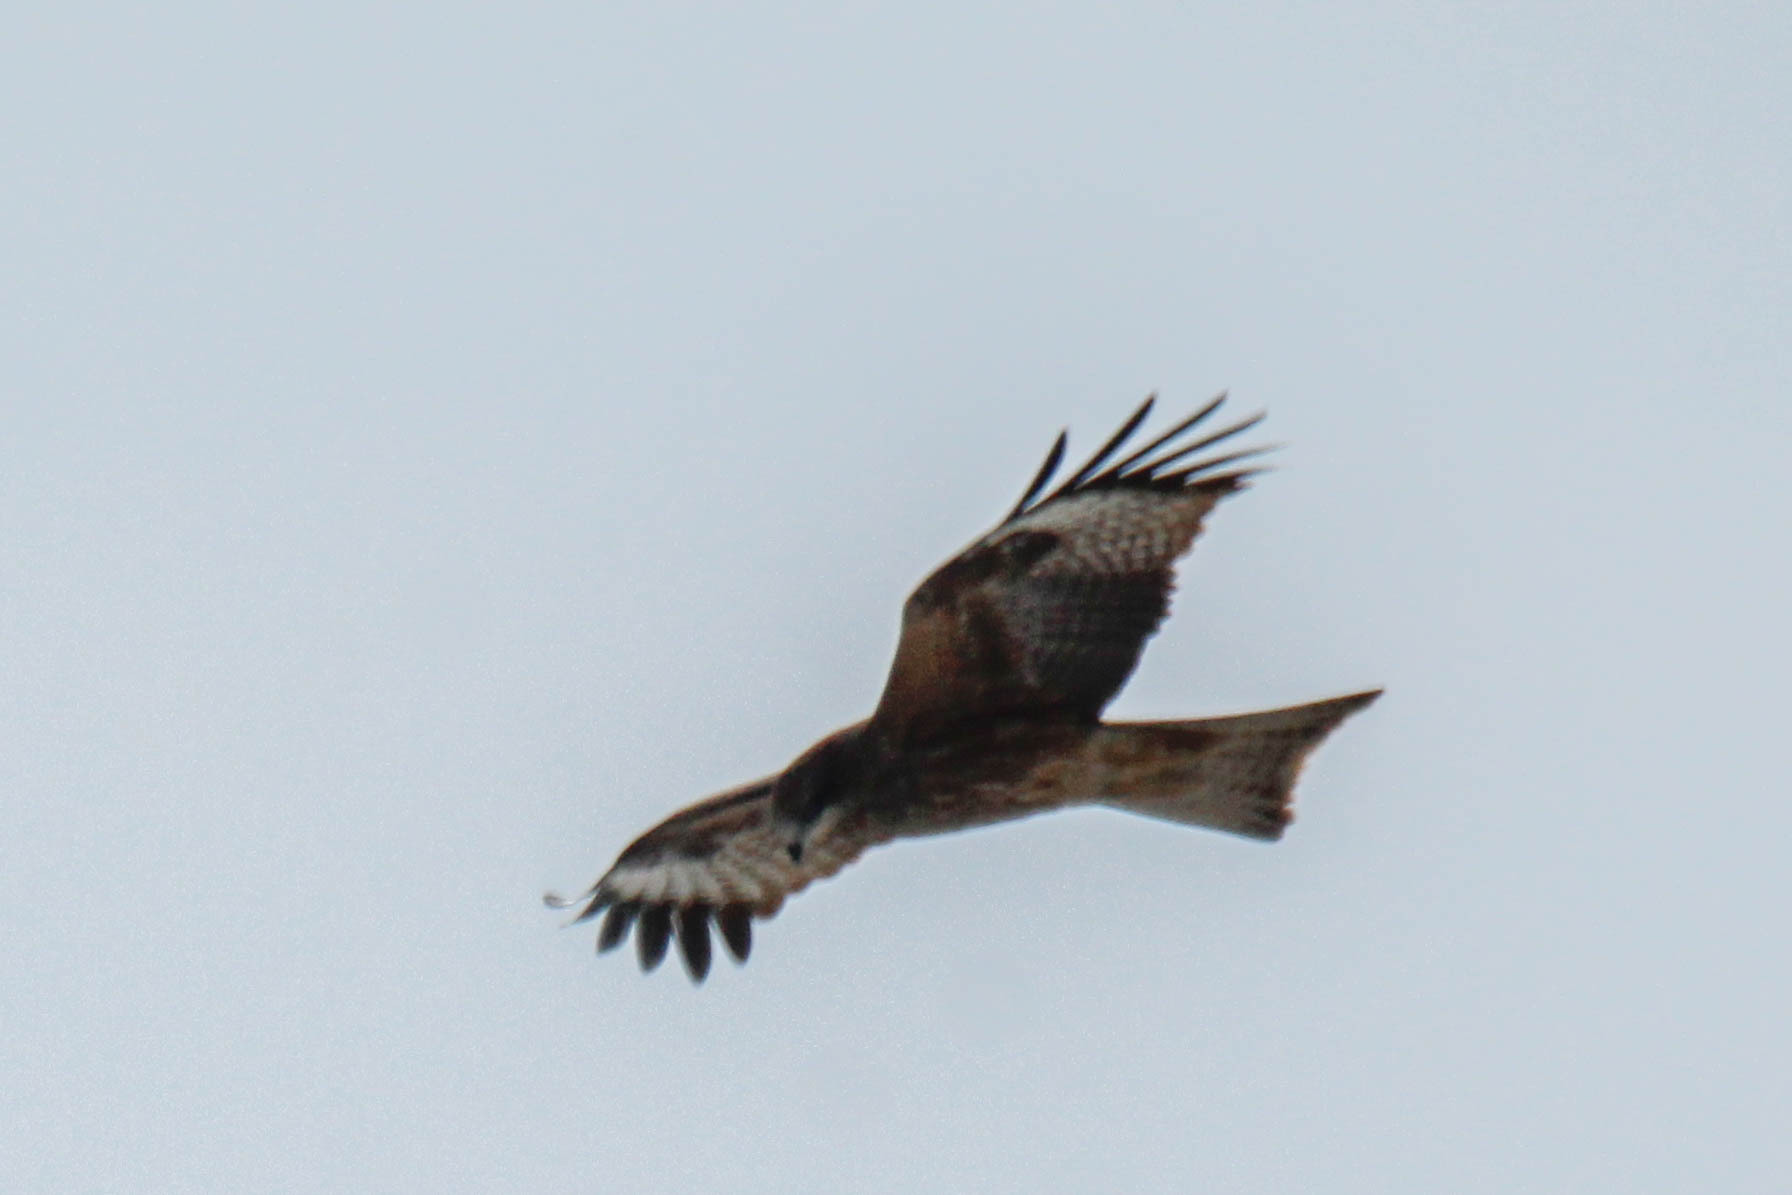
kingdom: Animalia
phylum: Chordata
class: Aves
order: Accipitriformes
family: Accipitridae
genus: Milvus
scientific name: Milvus migrans
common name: Black kite
